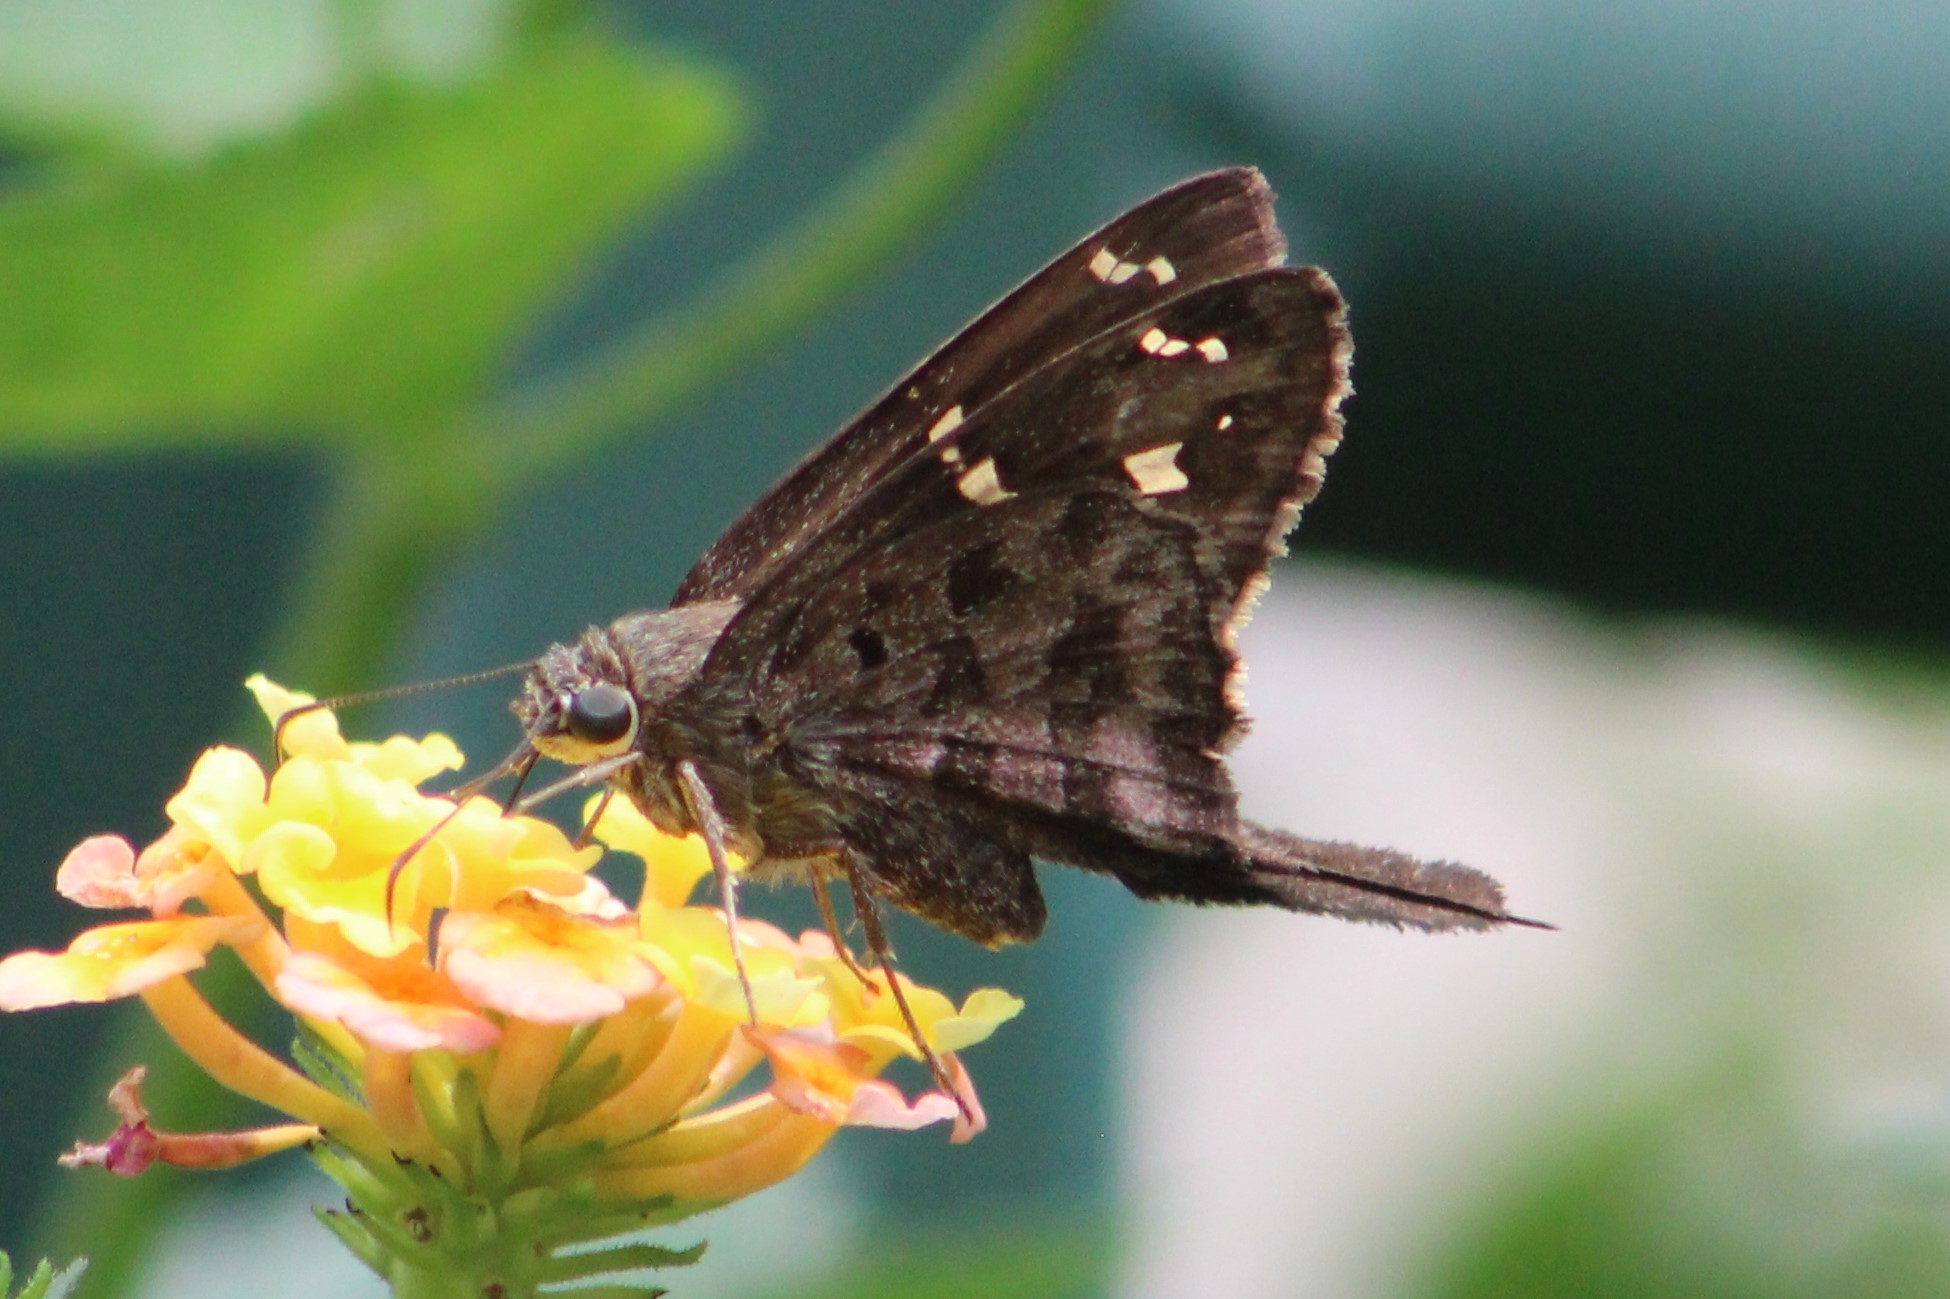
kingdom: Animalia
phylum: Arthropoda
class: Insecta
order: Lepidoptera
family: Hesperiidae
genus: Thorybes
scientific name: Thorybes
